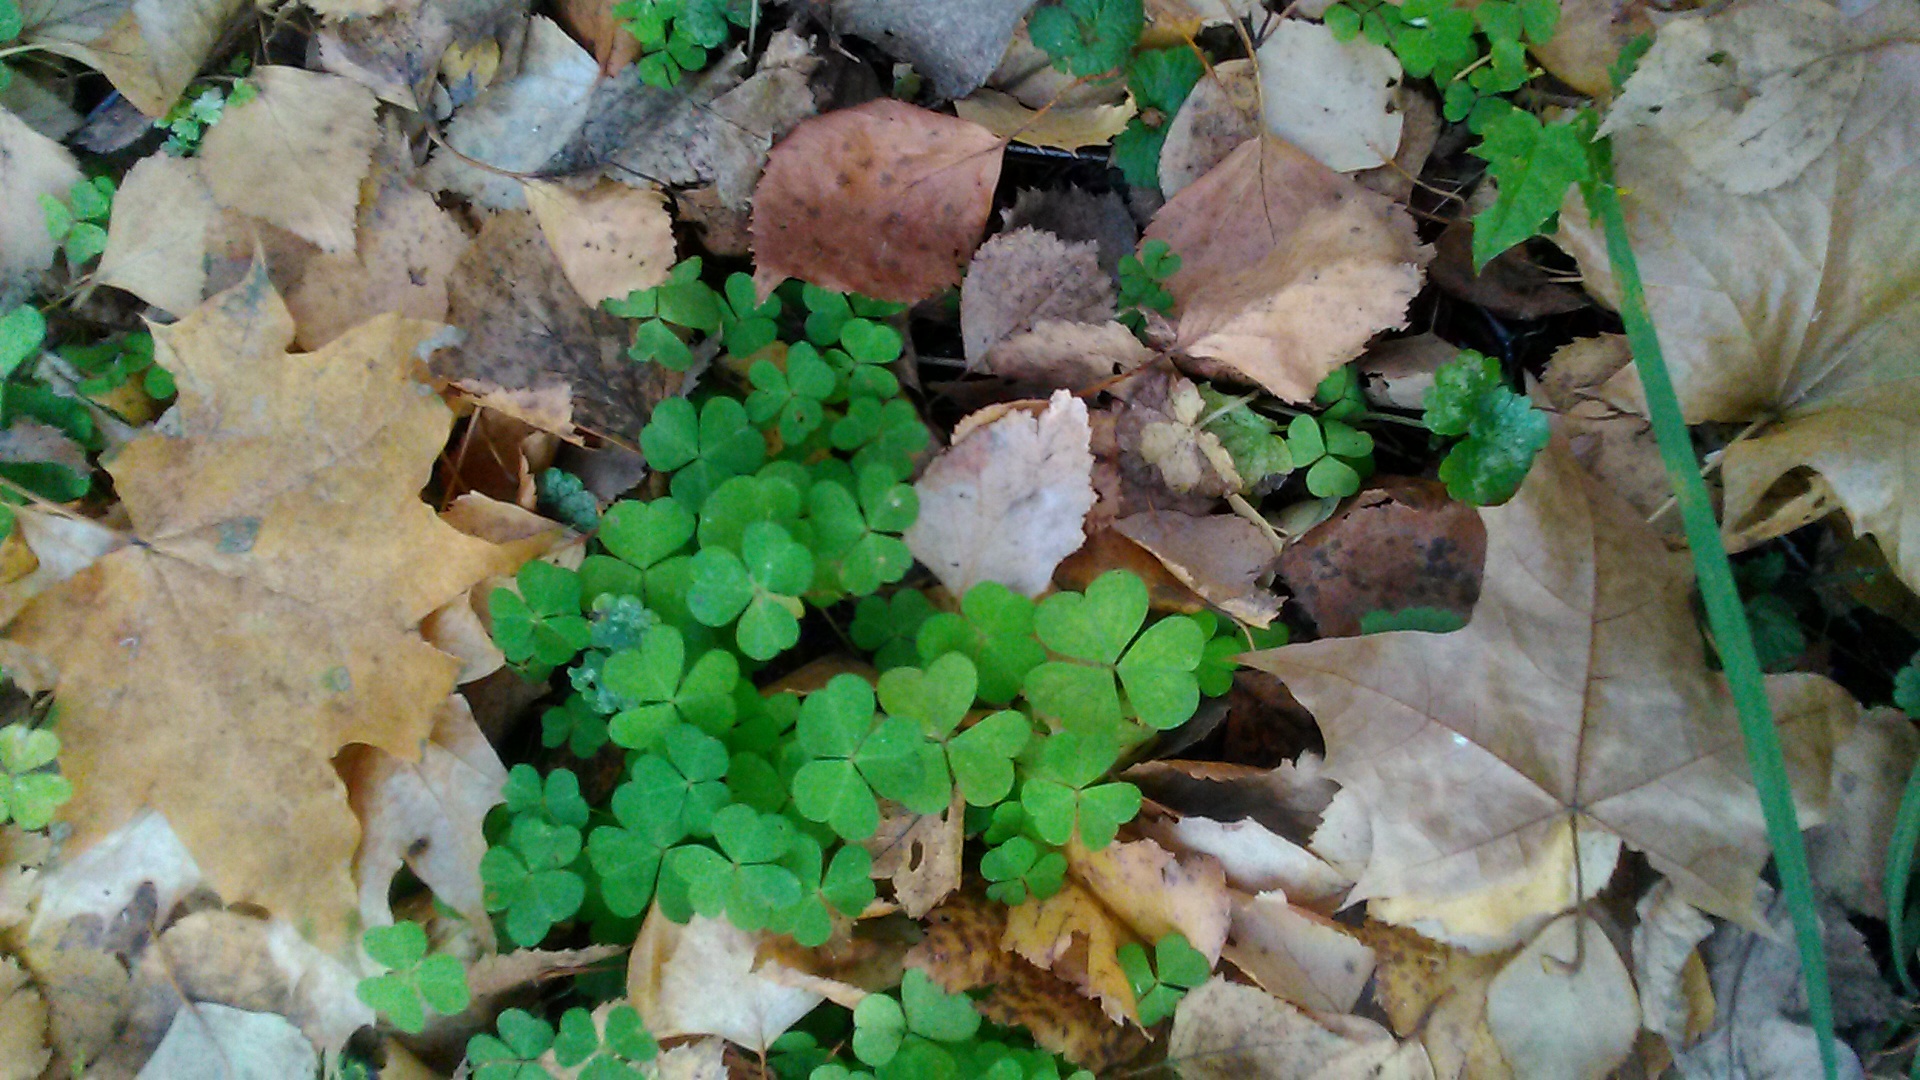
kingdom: Plantae
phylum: Tracheophyta
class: Magnoliopsida
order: Oxalidales
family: Oxalidaceae
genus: Oxalis
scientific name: Oxalis acetosella
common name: Wood-sorrel
